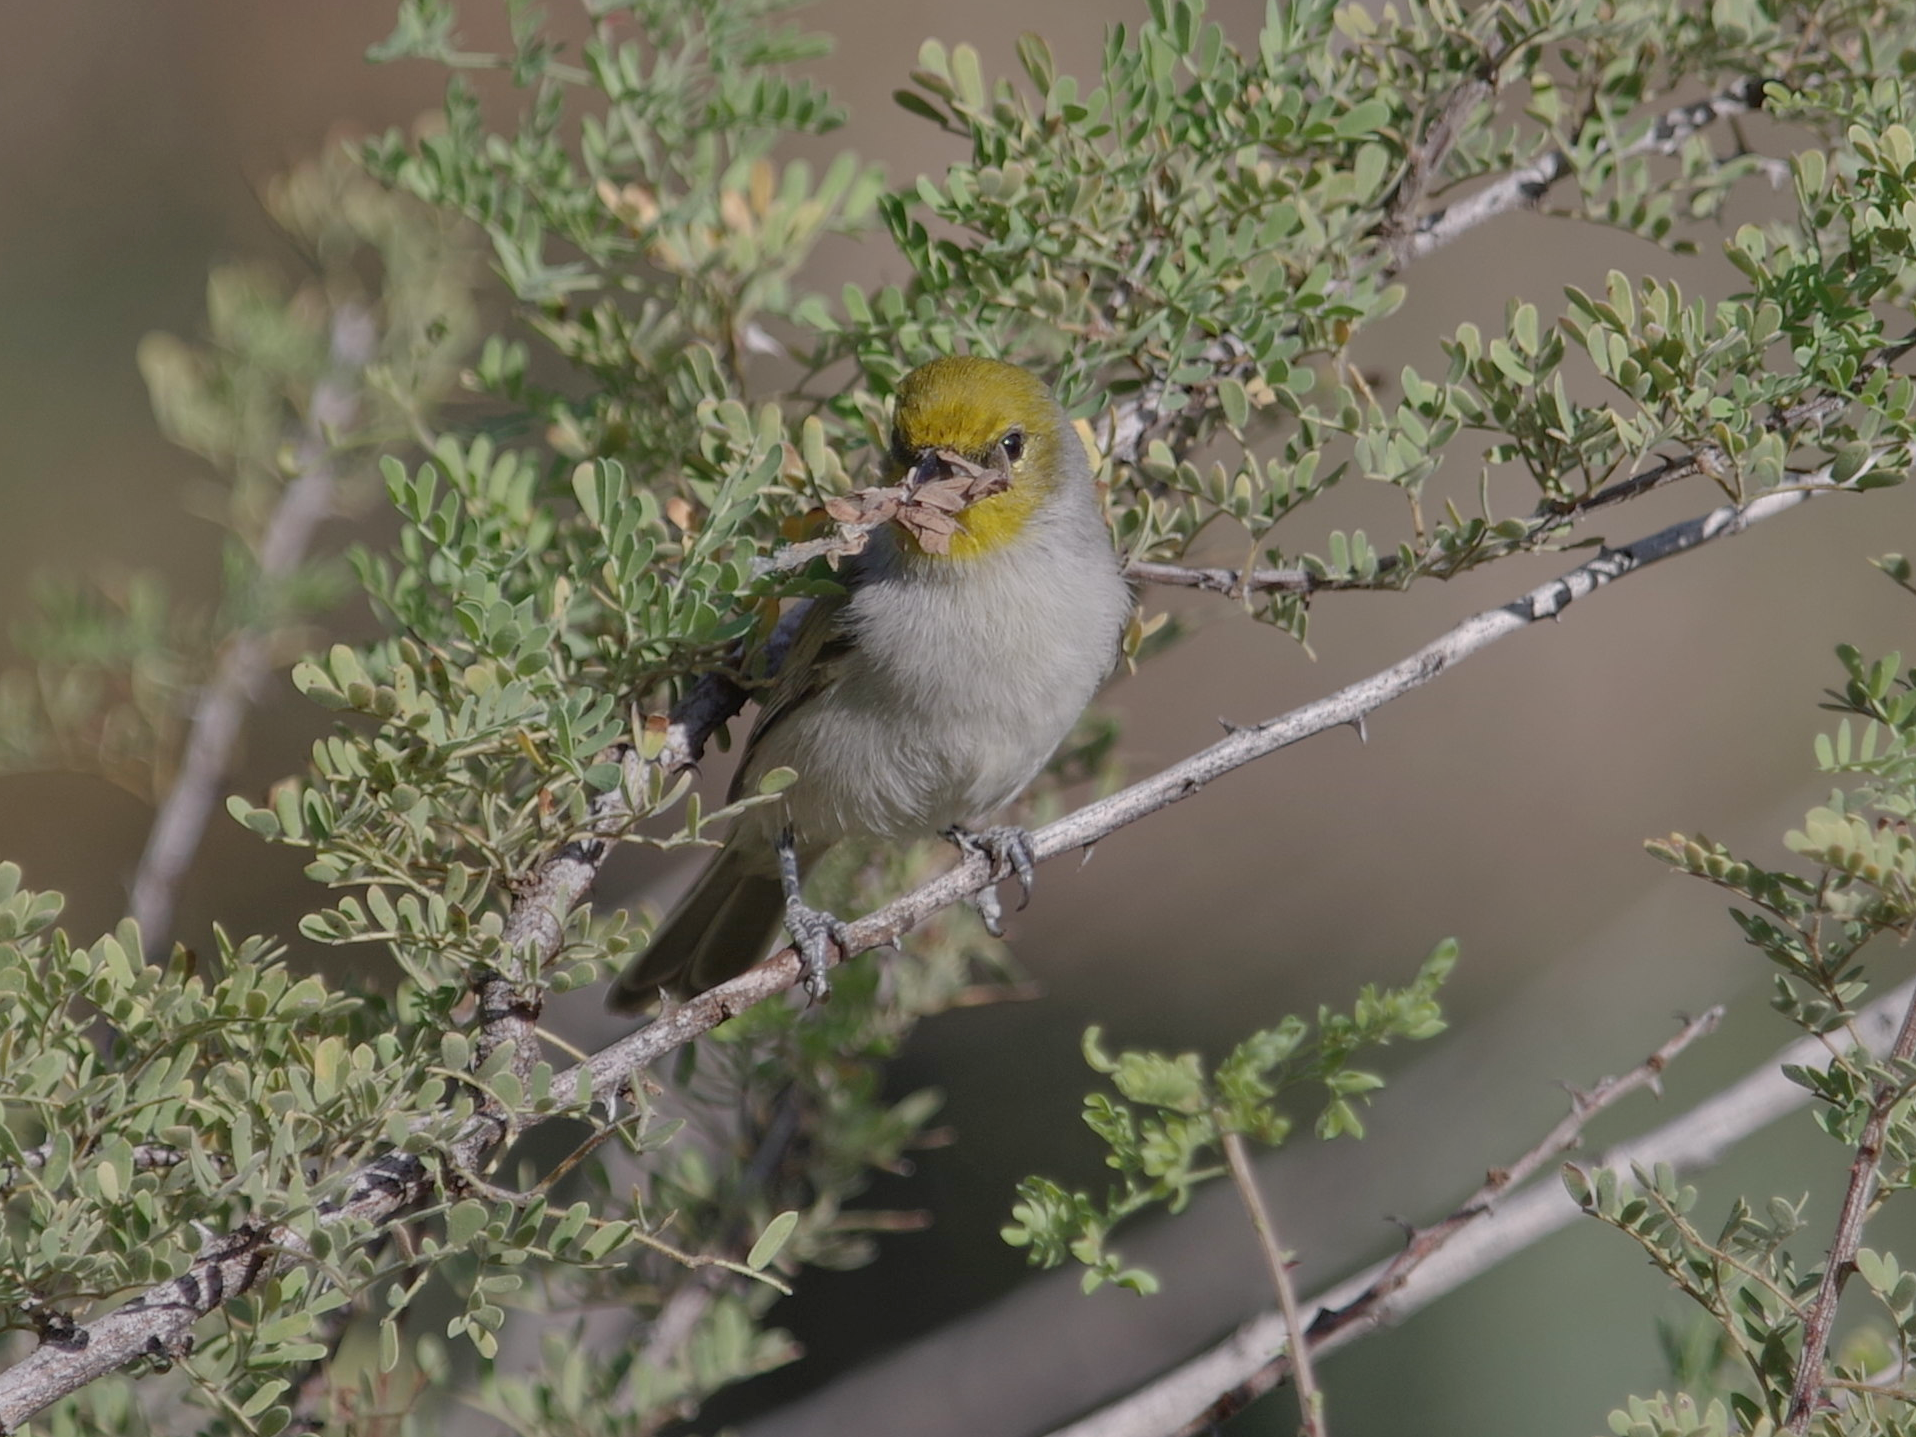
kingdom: Animalia
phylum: Chordata
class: Aves
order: Passeriformes
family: Remizidae
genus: Auriparus
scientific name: Auriparus flaviceps
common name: Verdin
